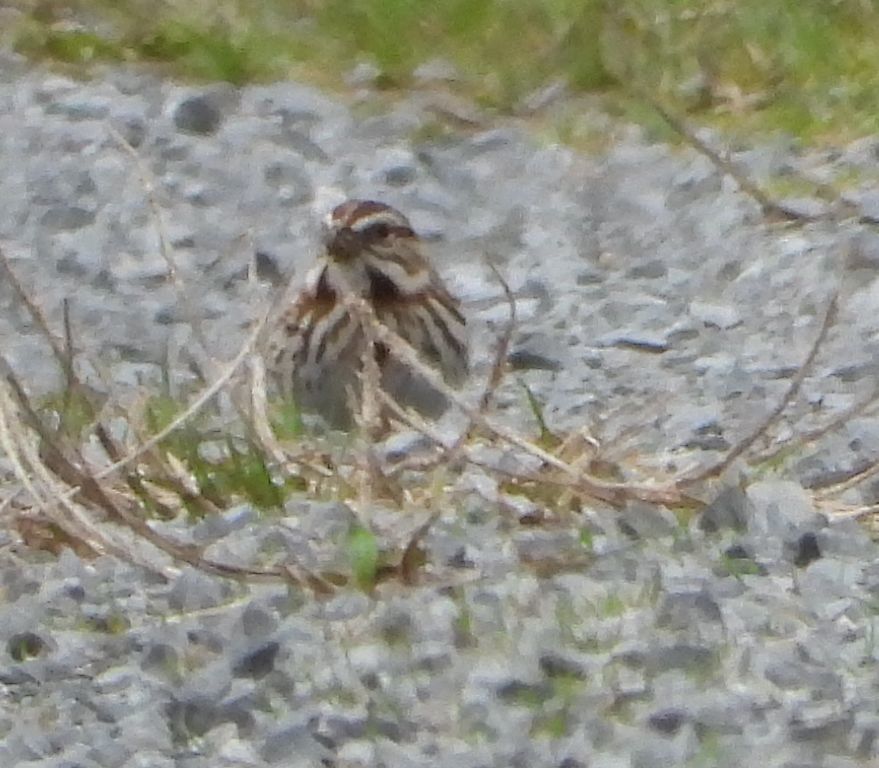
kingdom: Animalia
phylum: Chordata
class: Aves
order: Passeriformes
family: Passerellidae
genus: Melospiza
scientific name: Melospiza melodia
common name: Song sparrow
